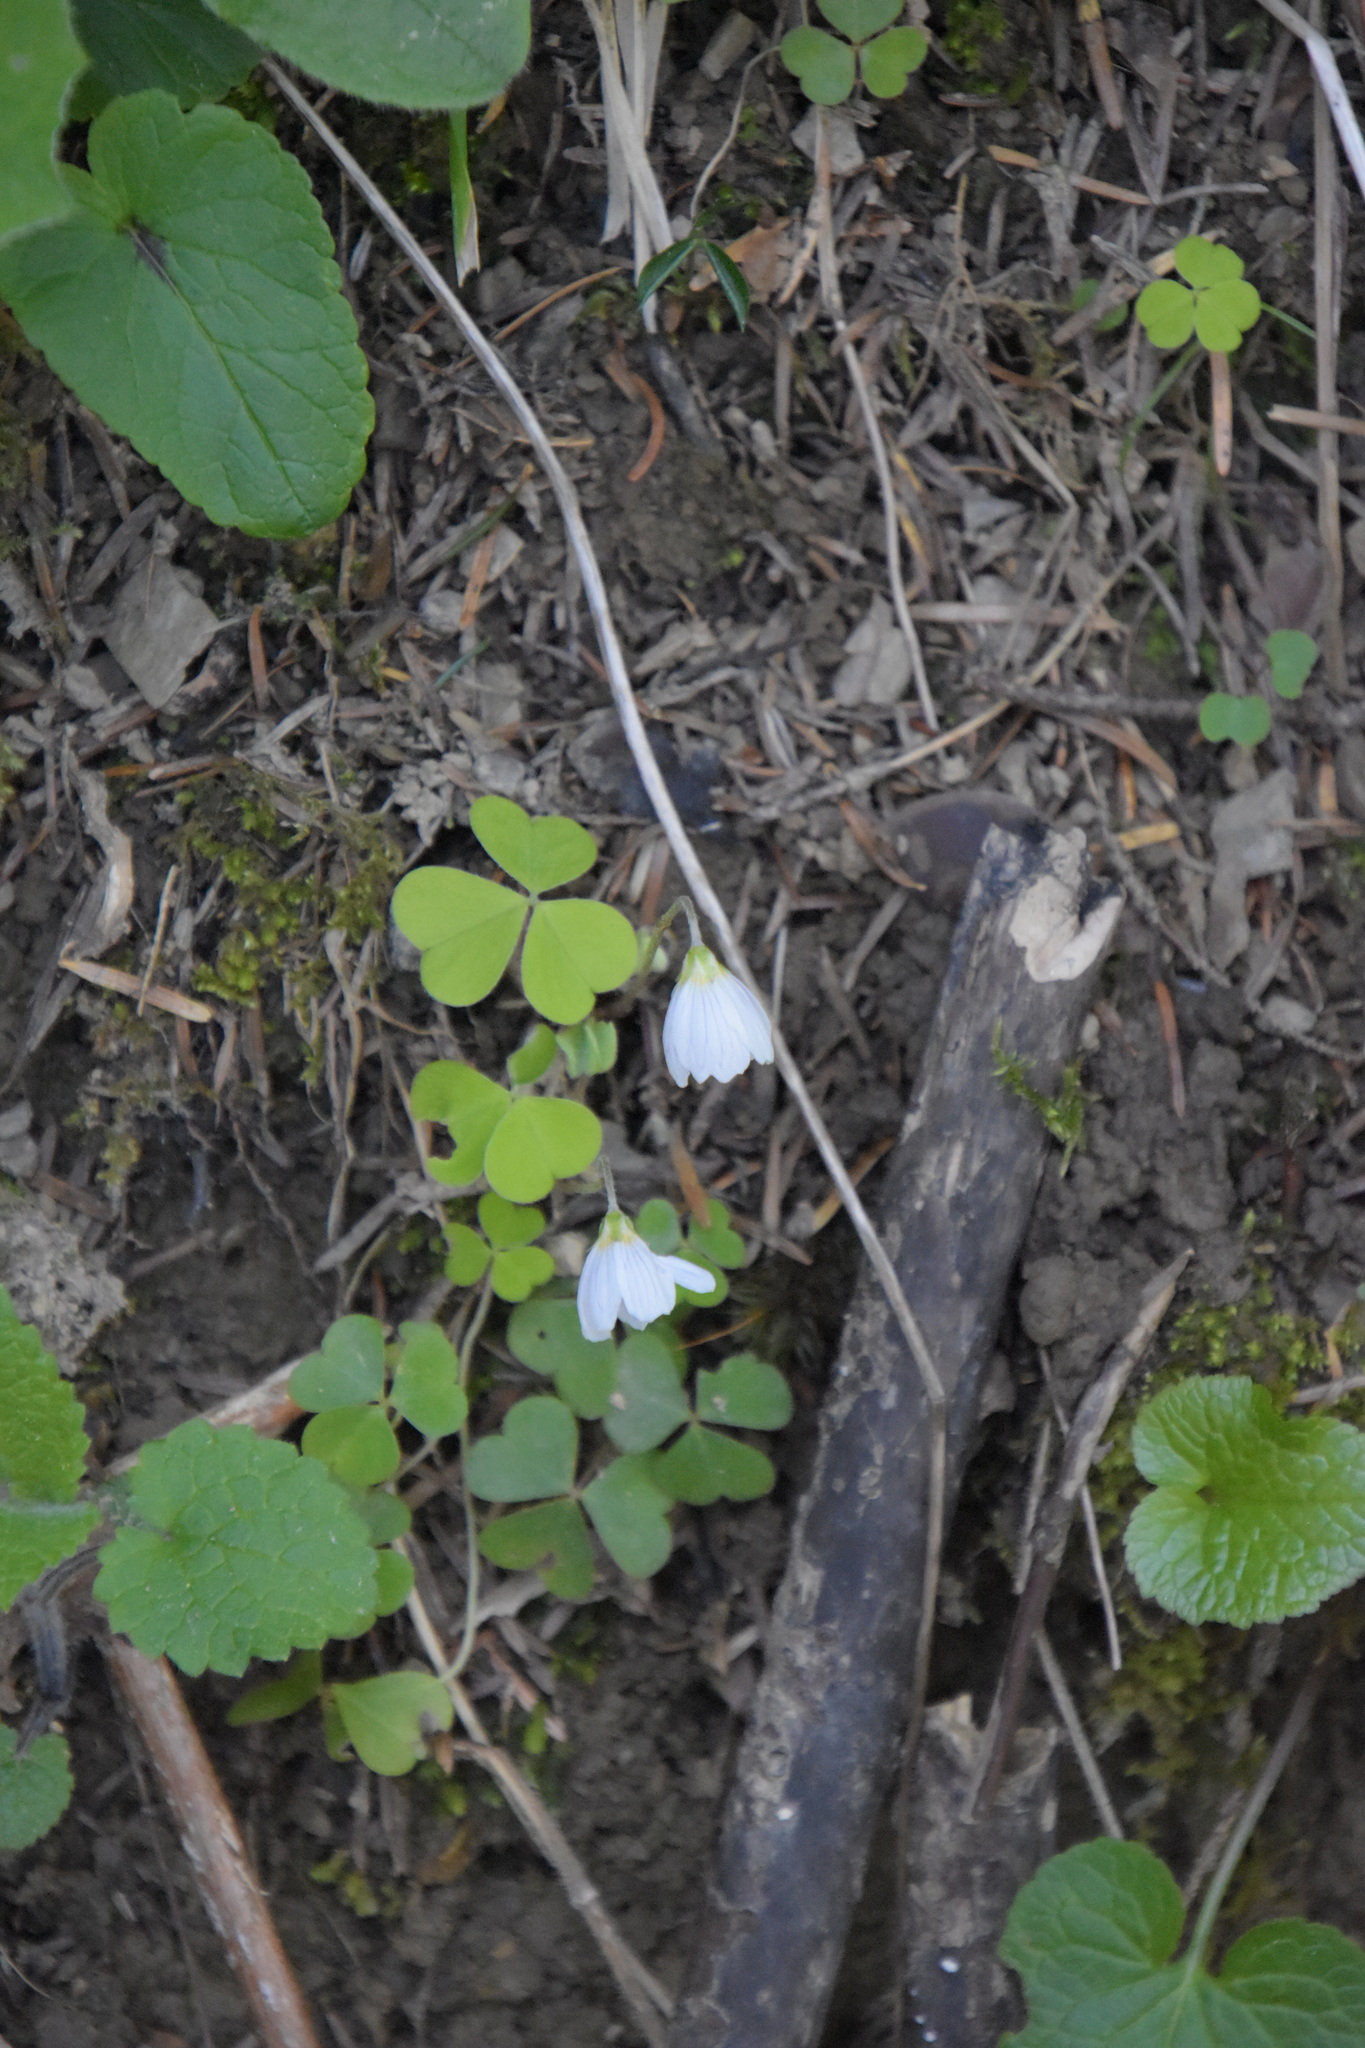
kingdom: Plantae
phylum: Tracheophyta
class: Magnoliopsida
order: Oxalidales
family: Oxalidaceae
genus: Oxalis
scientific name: Oxalis acetosella
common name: Wood-sorrel
